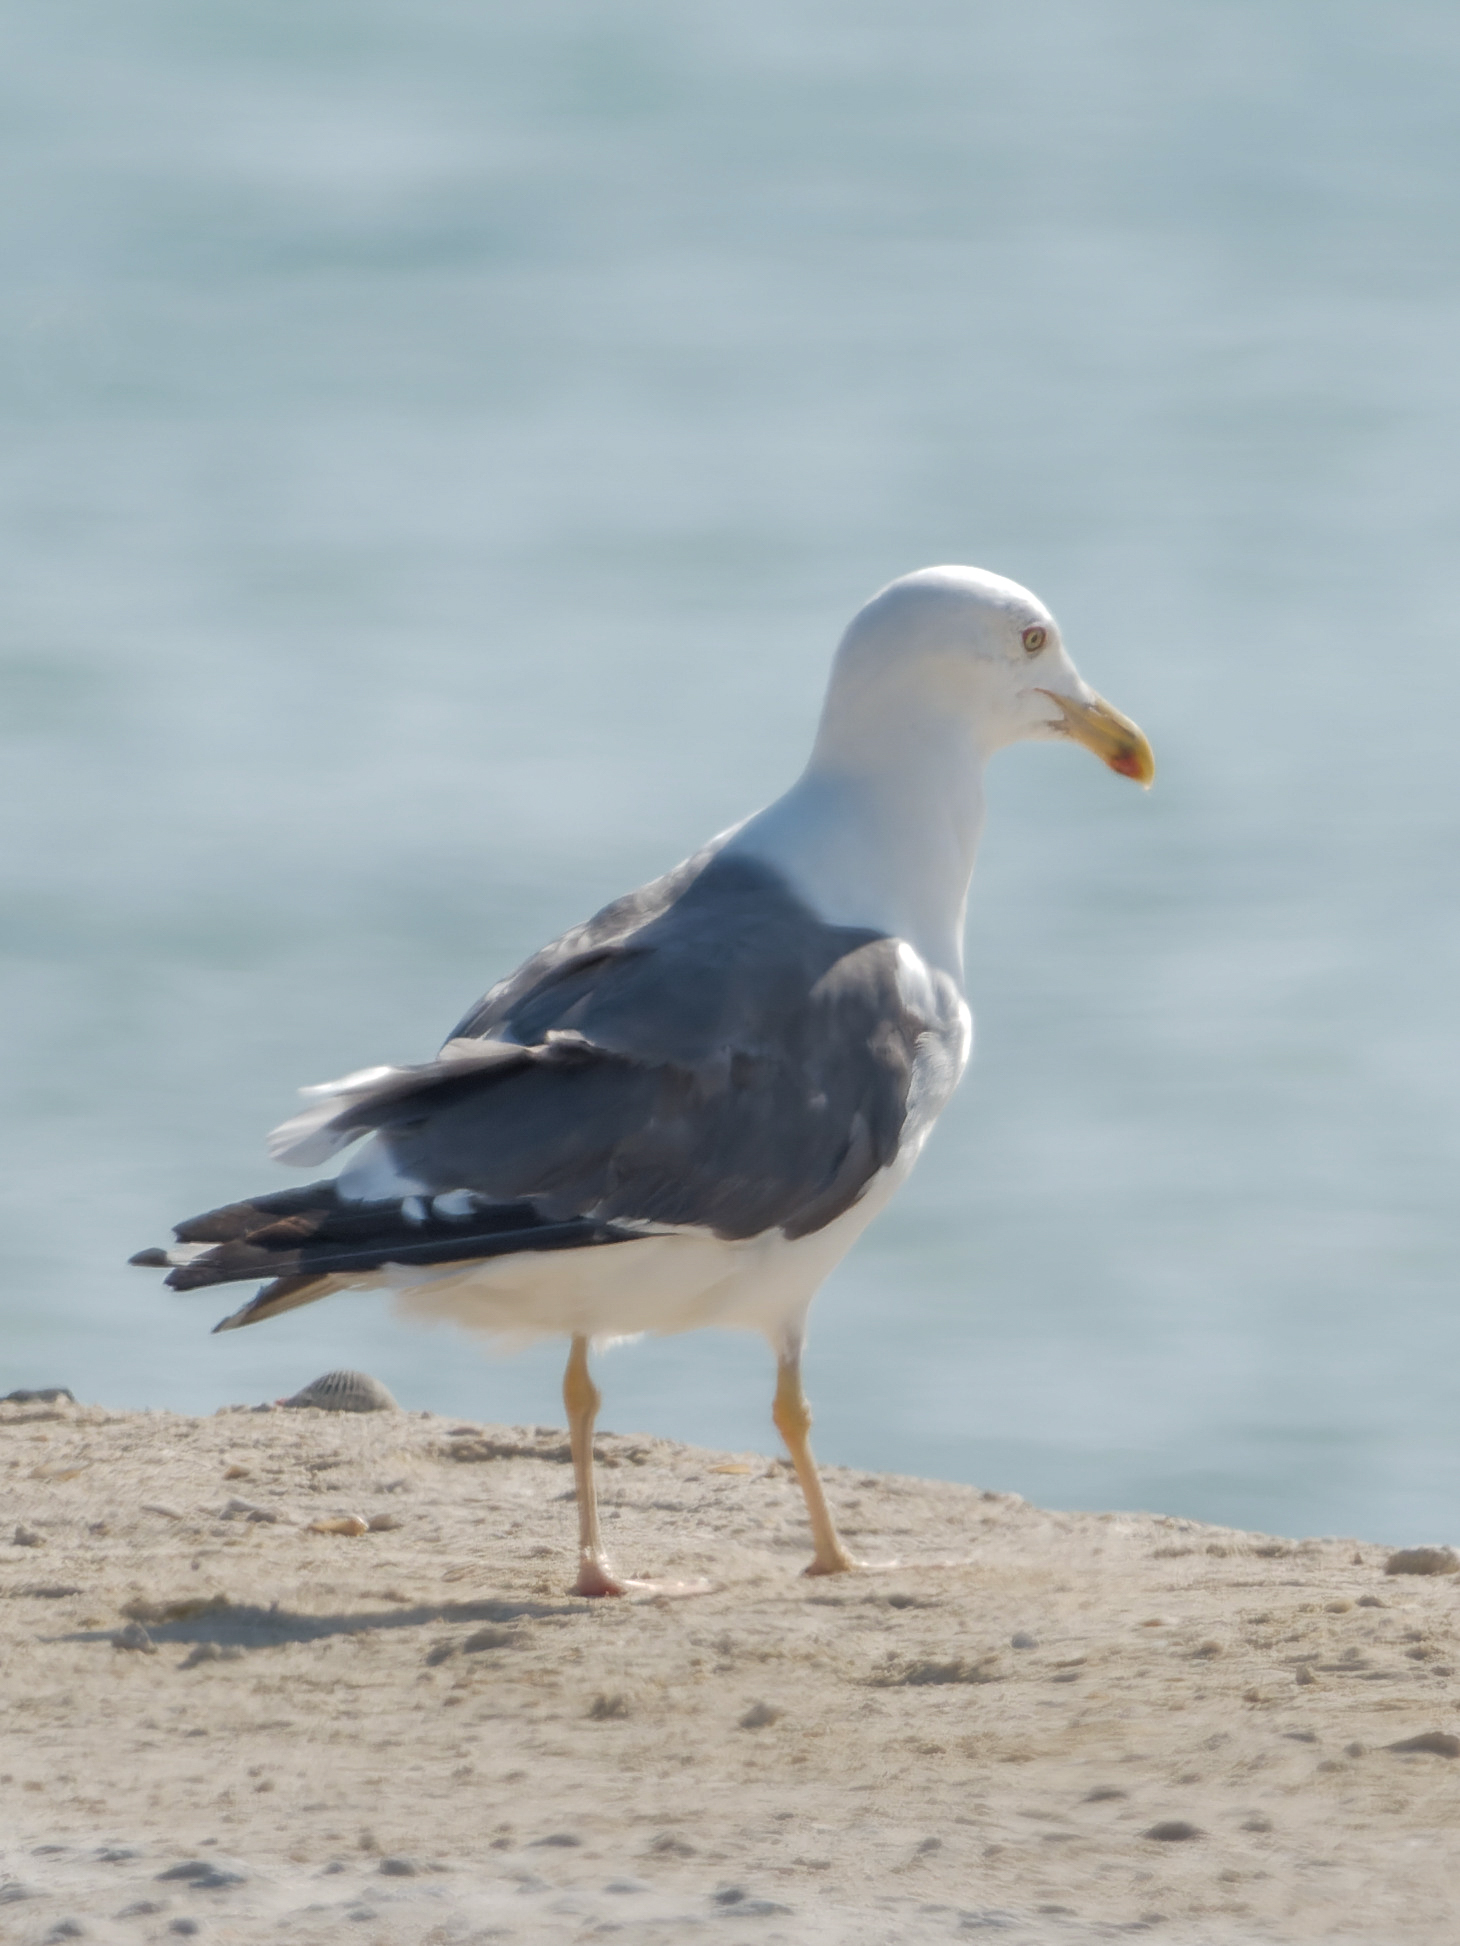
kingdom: Animalia
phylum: Chordata
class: Aves
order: Charadriiformes
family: Laridae
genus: Larus
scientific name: Larus fuscus
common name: Lesser black-backed gull
